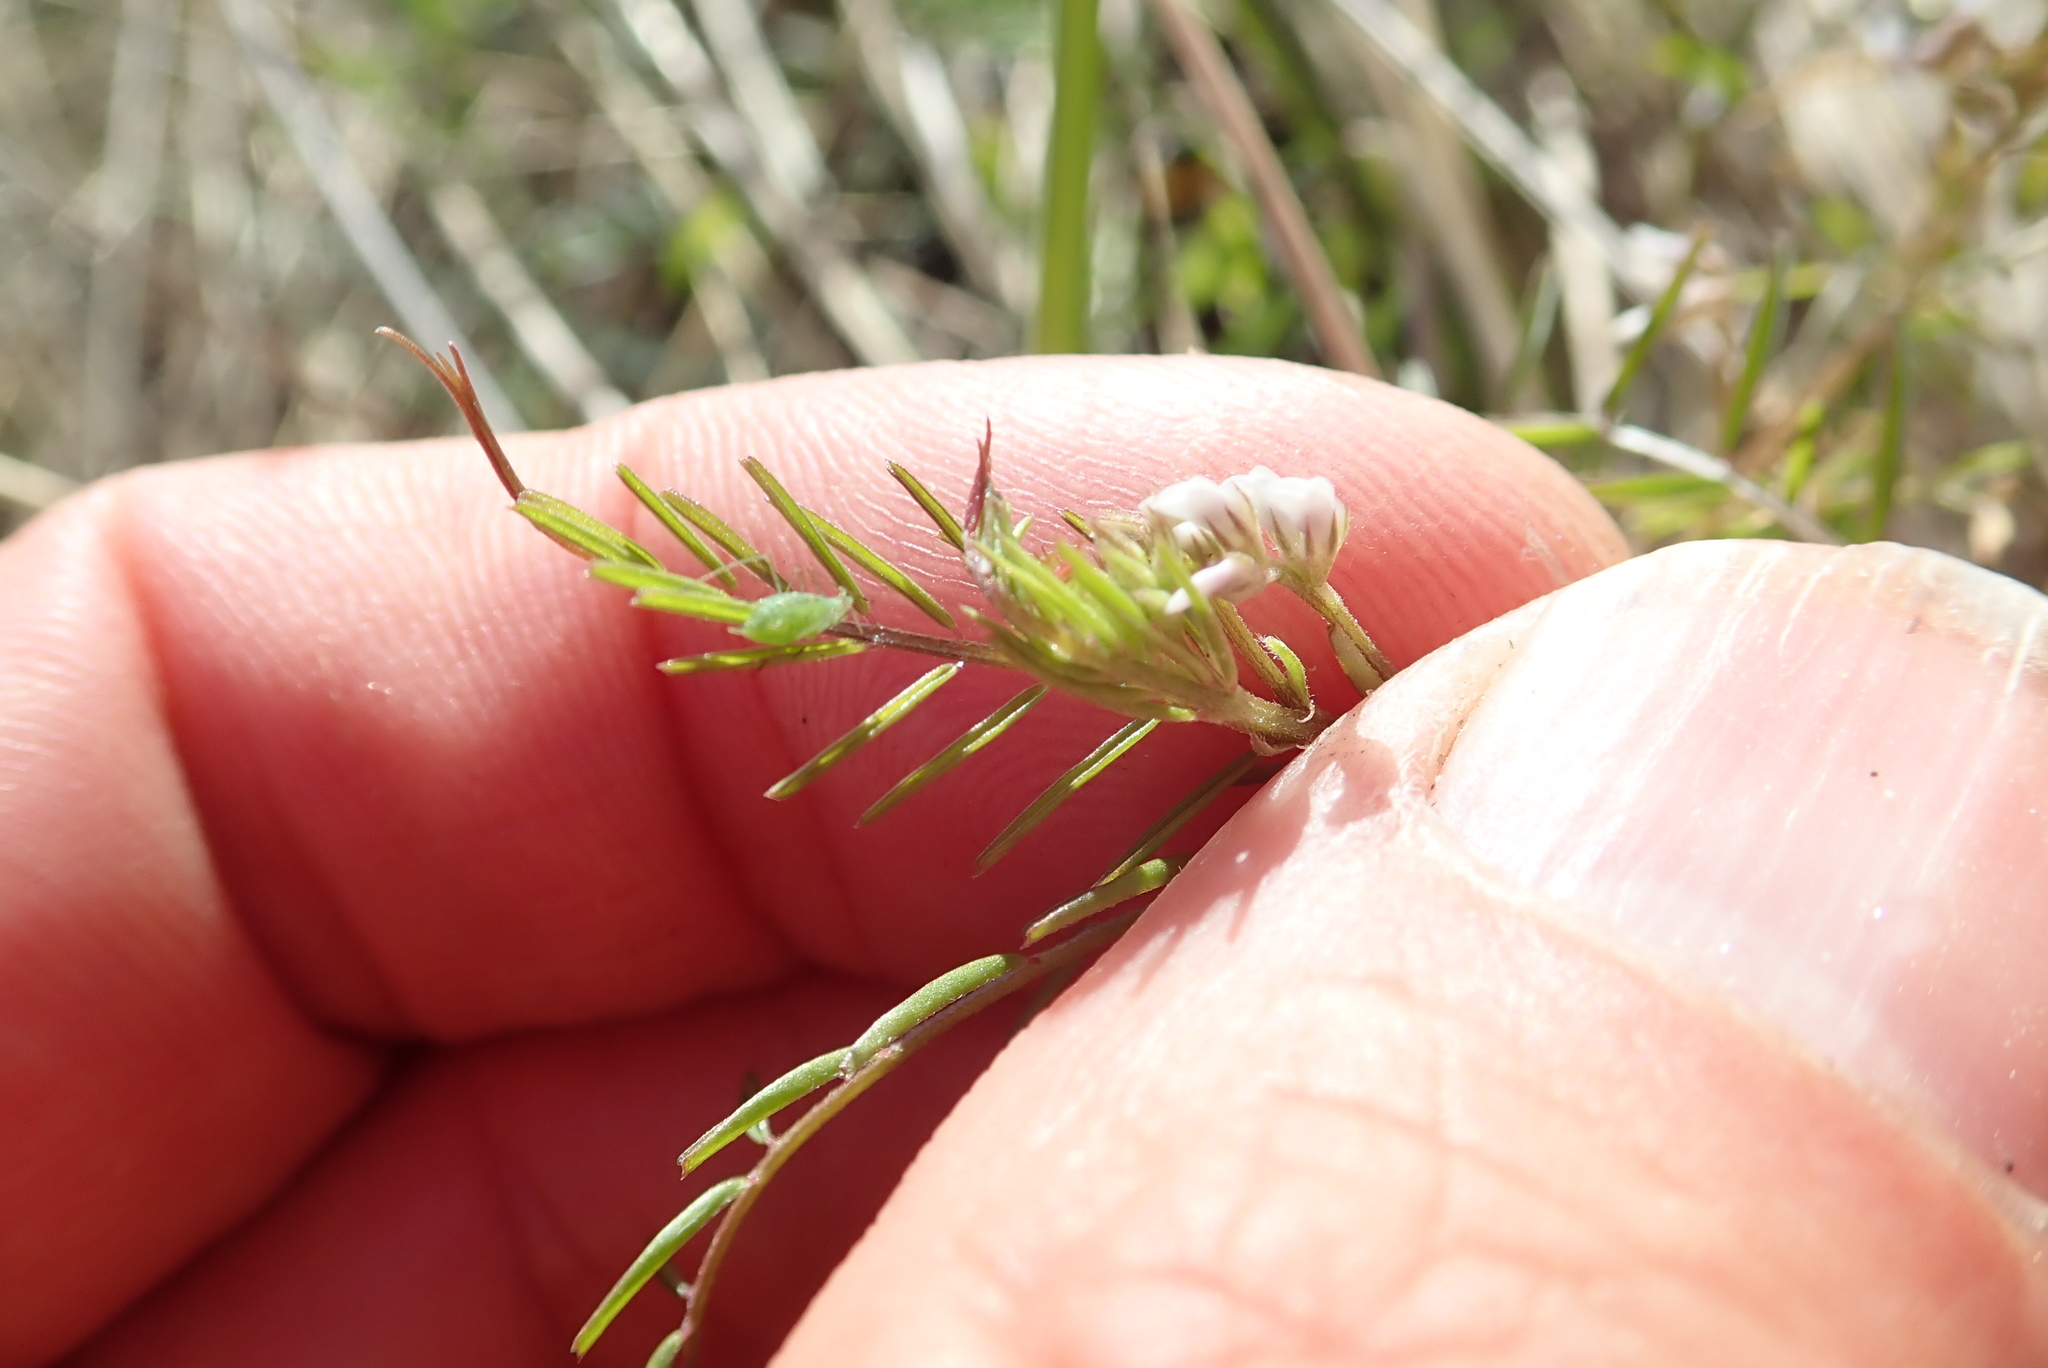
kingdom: Plantae
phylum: Tracheophyta
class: Magnoliopsida
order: Fabales
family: Fabaceae
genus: Vicia
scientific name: Vicia hirsuta
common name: Tiny vetch
